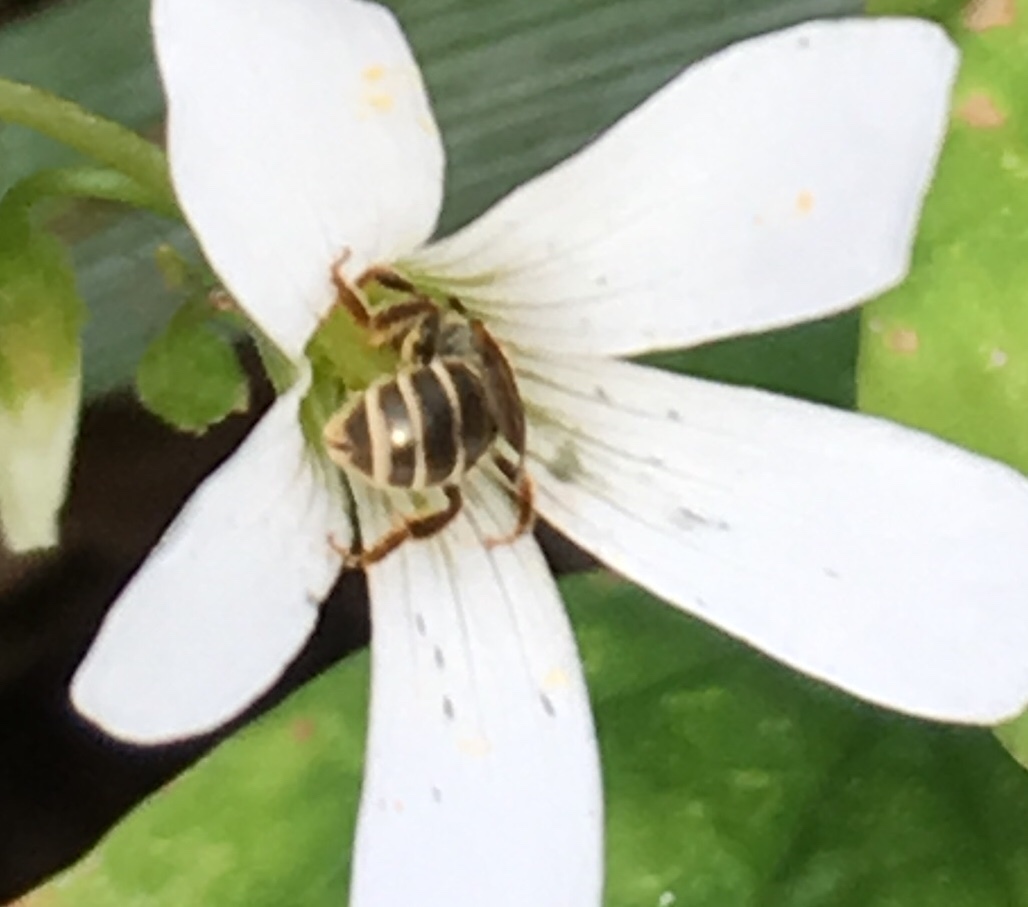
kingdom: Animalia
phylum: Arthropoda
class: Insecta
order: Hymenoptera
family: Halictidae
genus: Halictus
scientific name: Halictus confusus
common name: Southern bronze furrow bee
